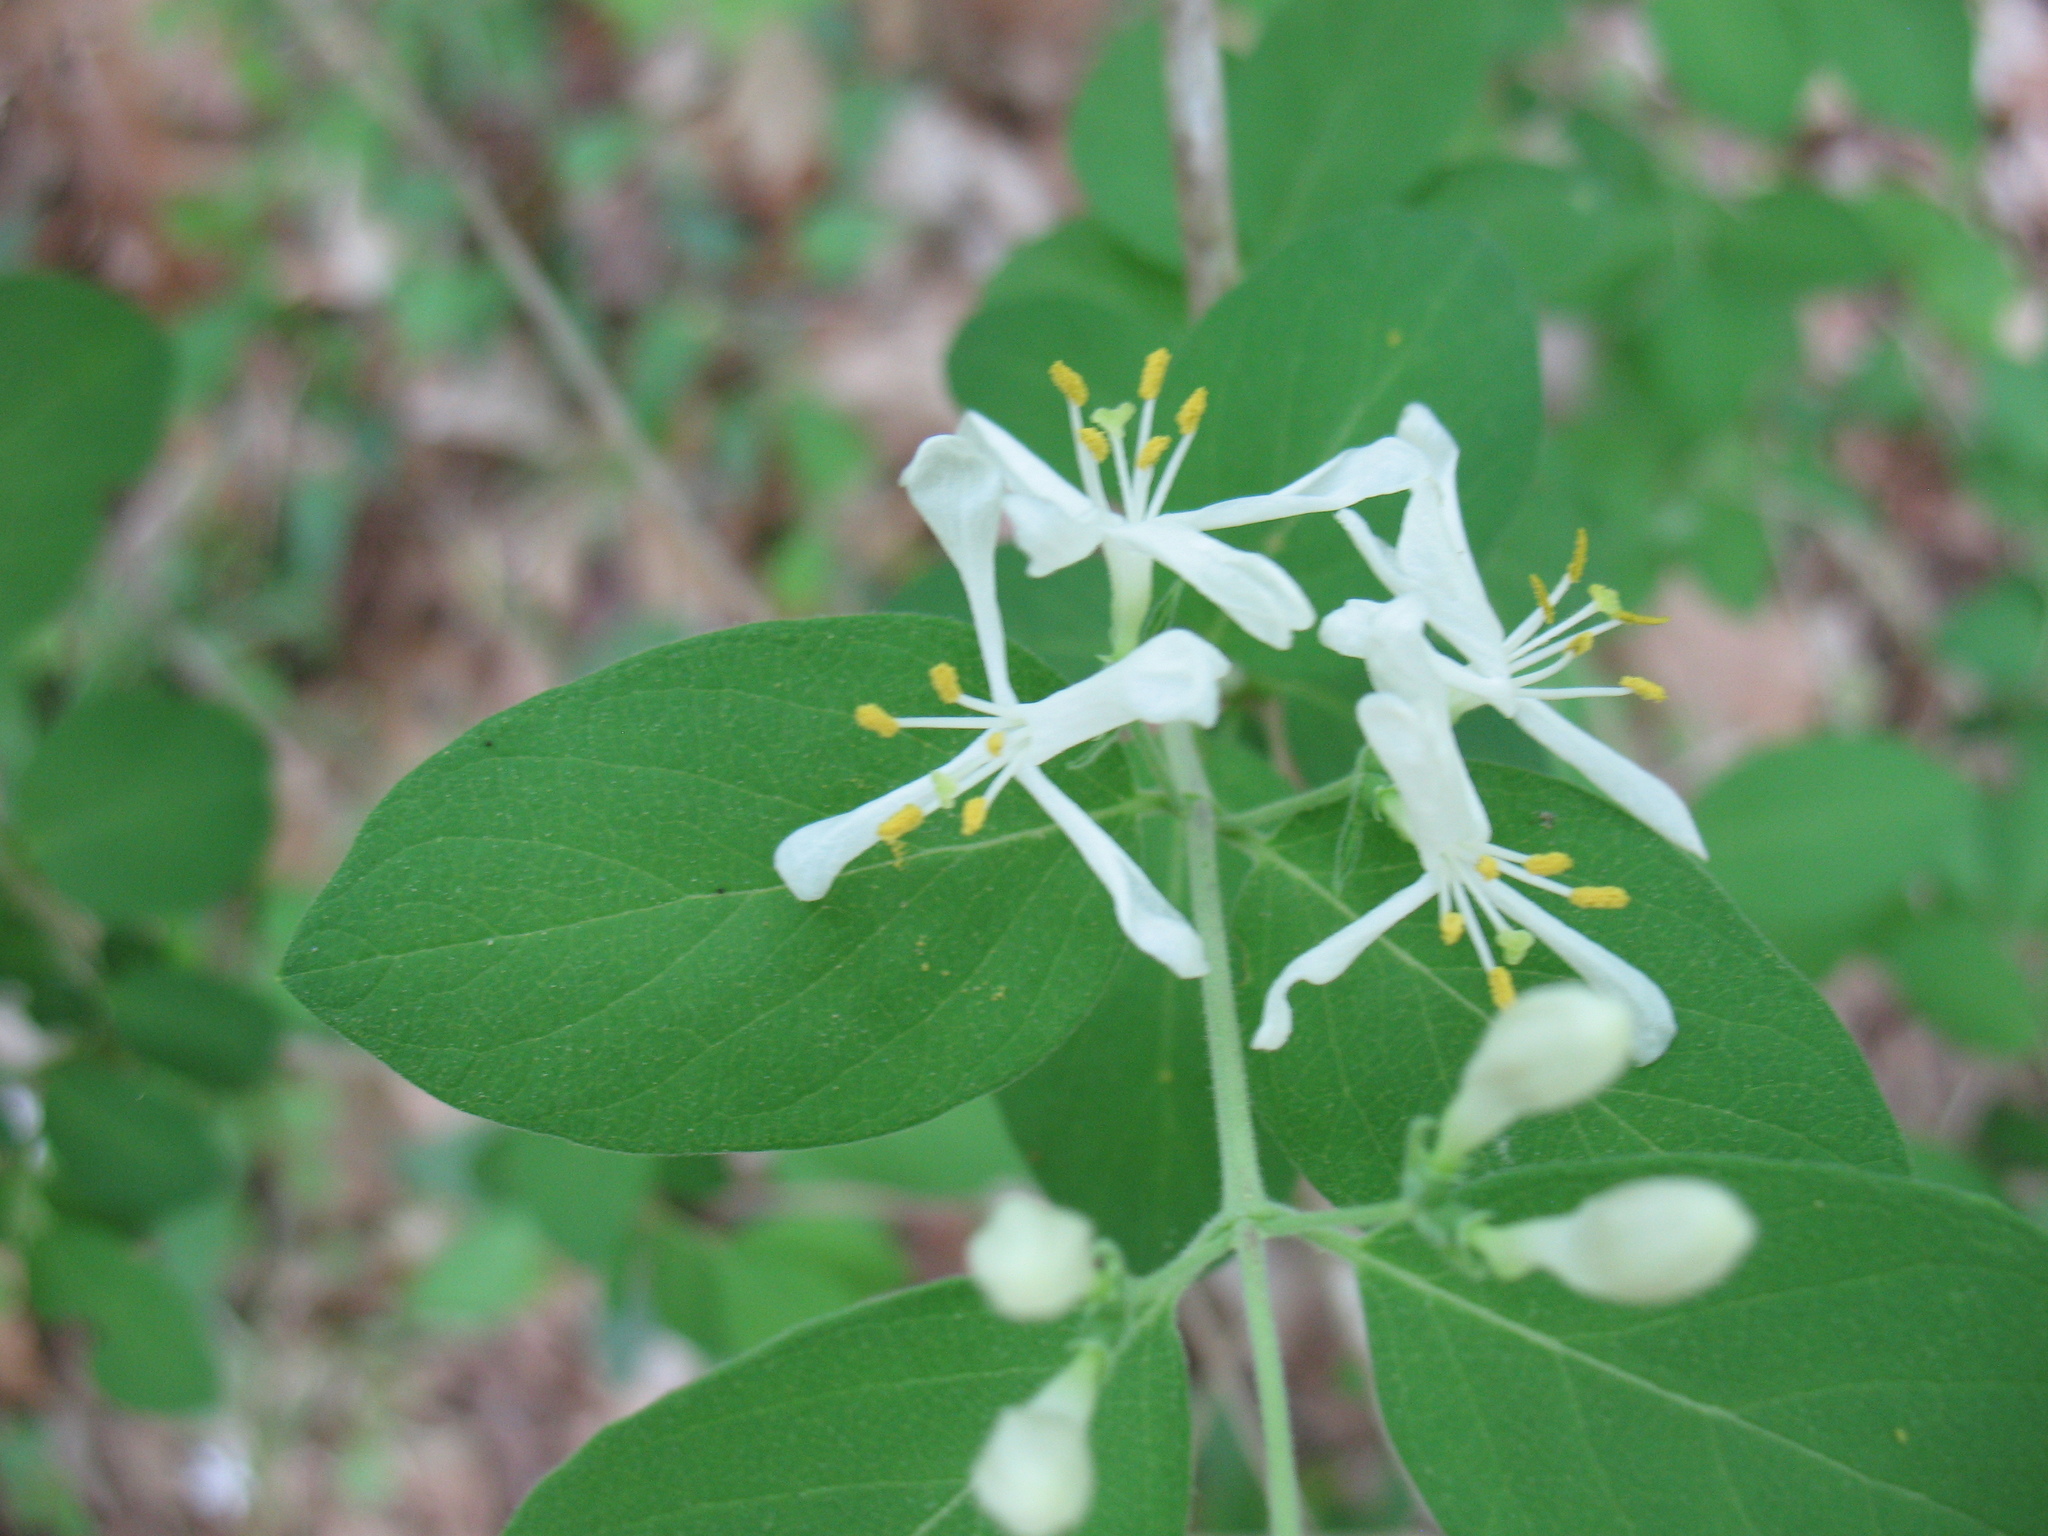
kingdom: Plantae
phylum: Tracheophyta
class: Magnoliopsida
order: Dipsacales
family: Caprifoliaceae
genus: Lonicera
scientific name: Lonicera morrowii
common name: Morrow's honeysuckle
